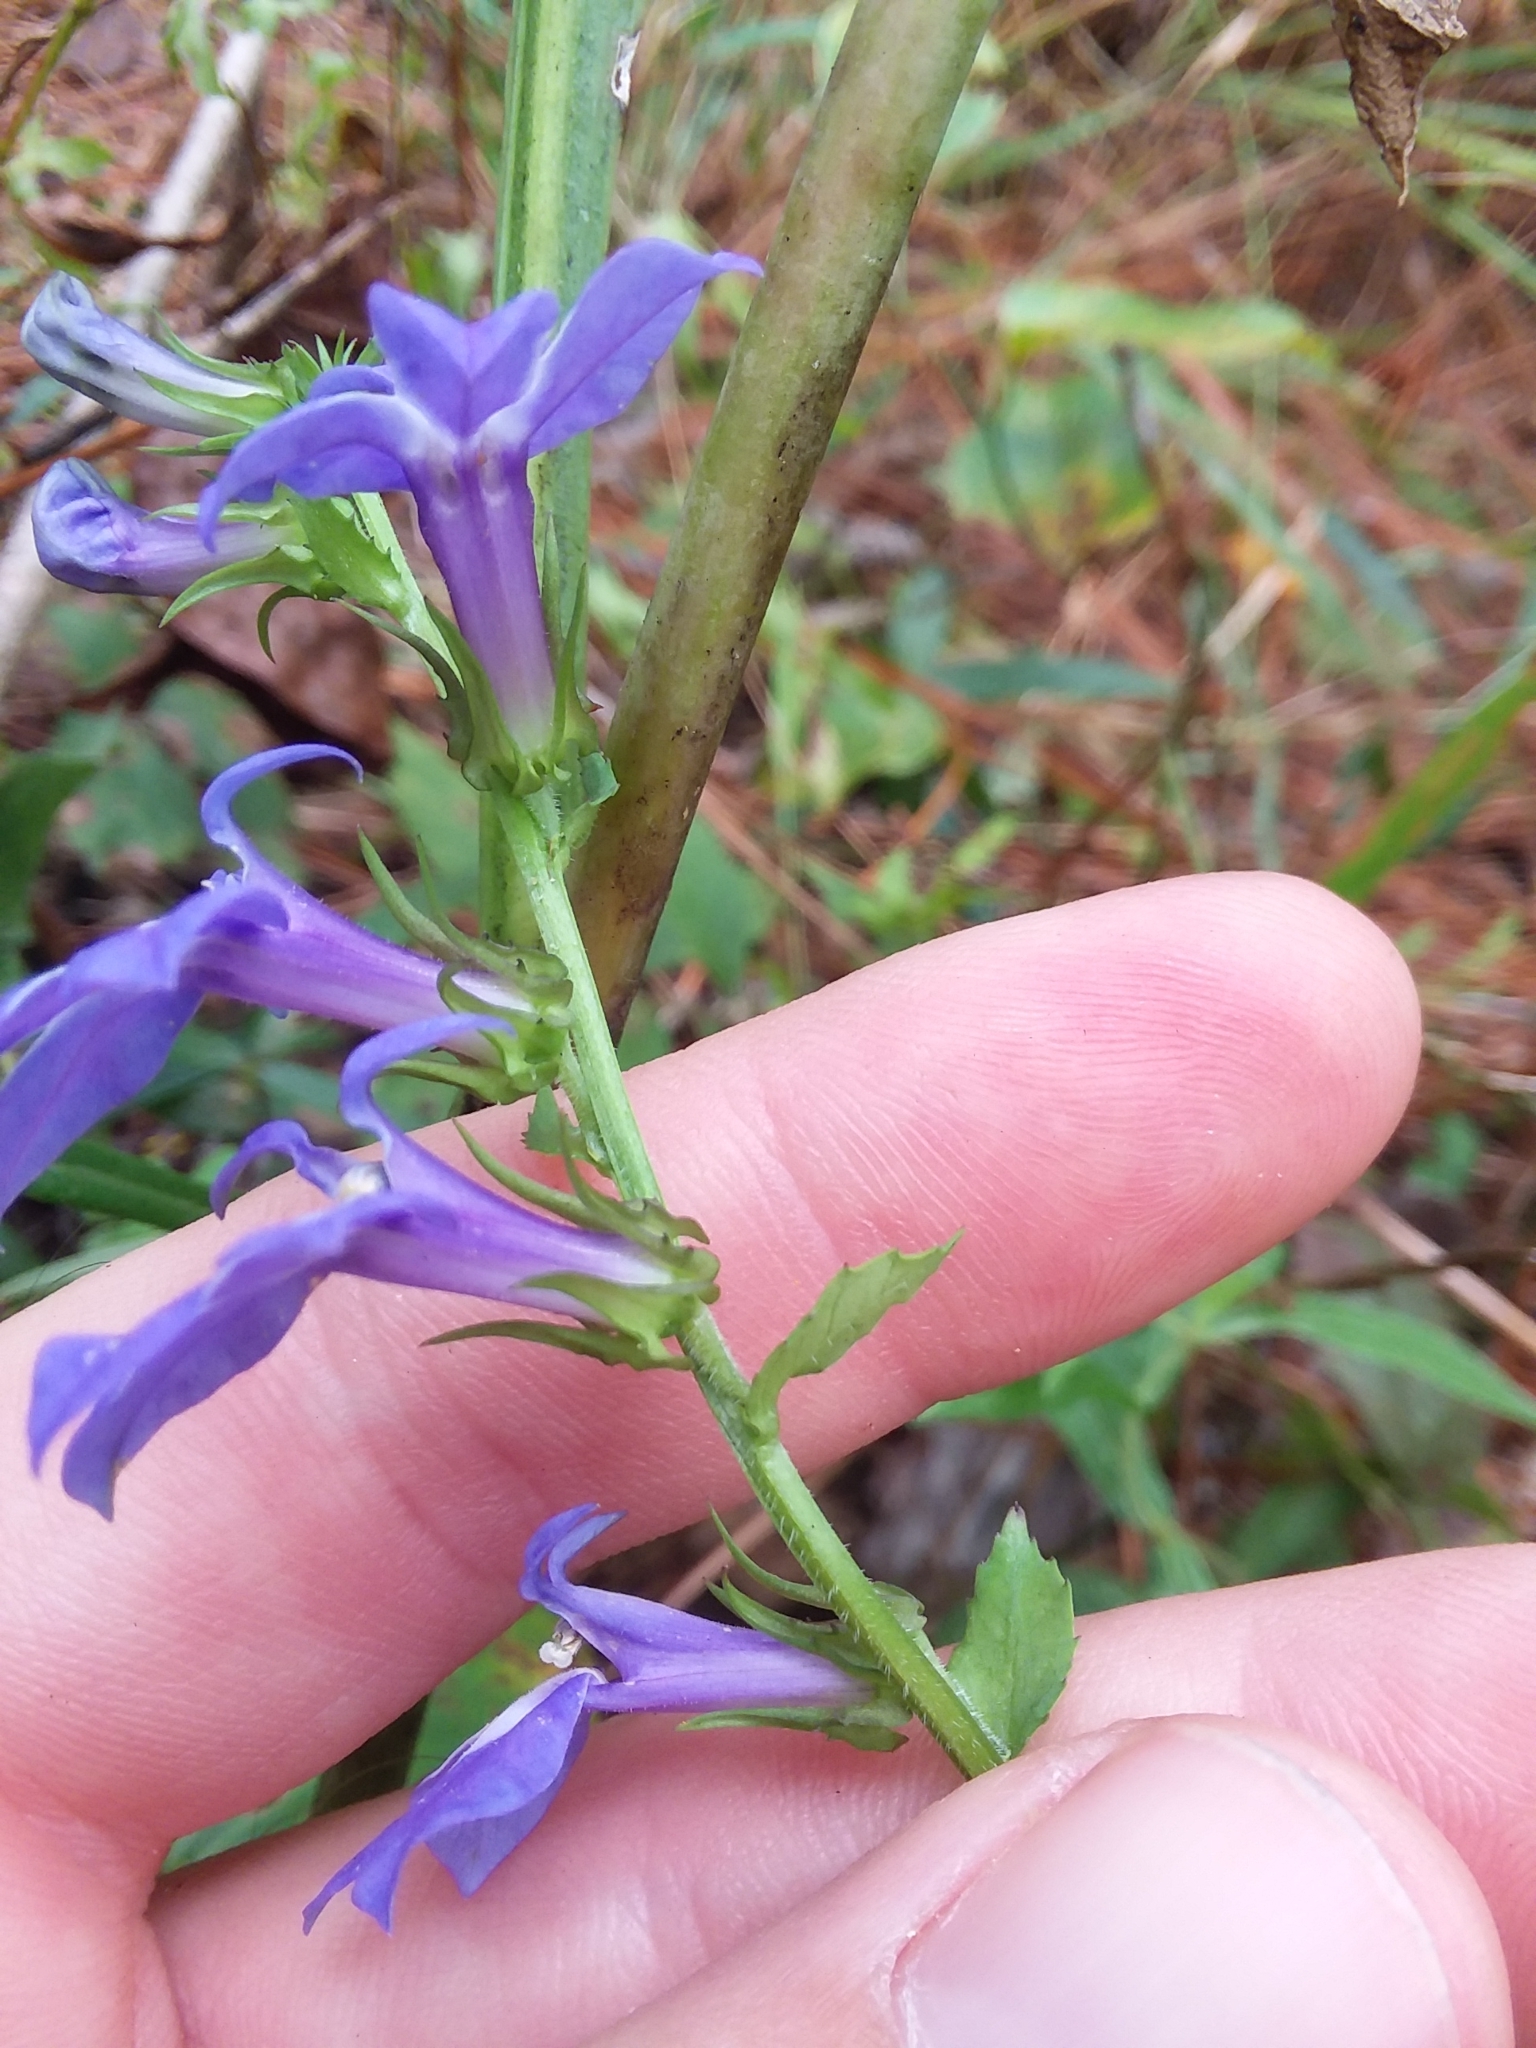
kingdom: Plantae
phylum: Tracheophyta
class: Magnoliopsida
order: Asterales
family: Campanulaceae
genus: Lobelia
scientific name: Lobelia rogersii
